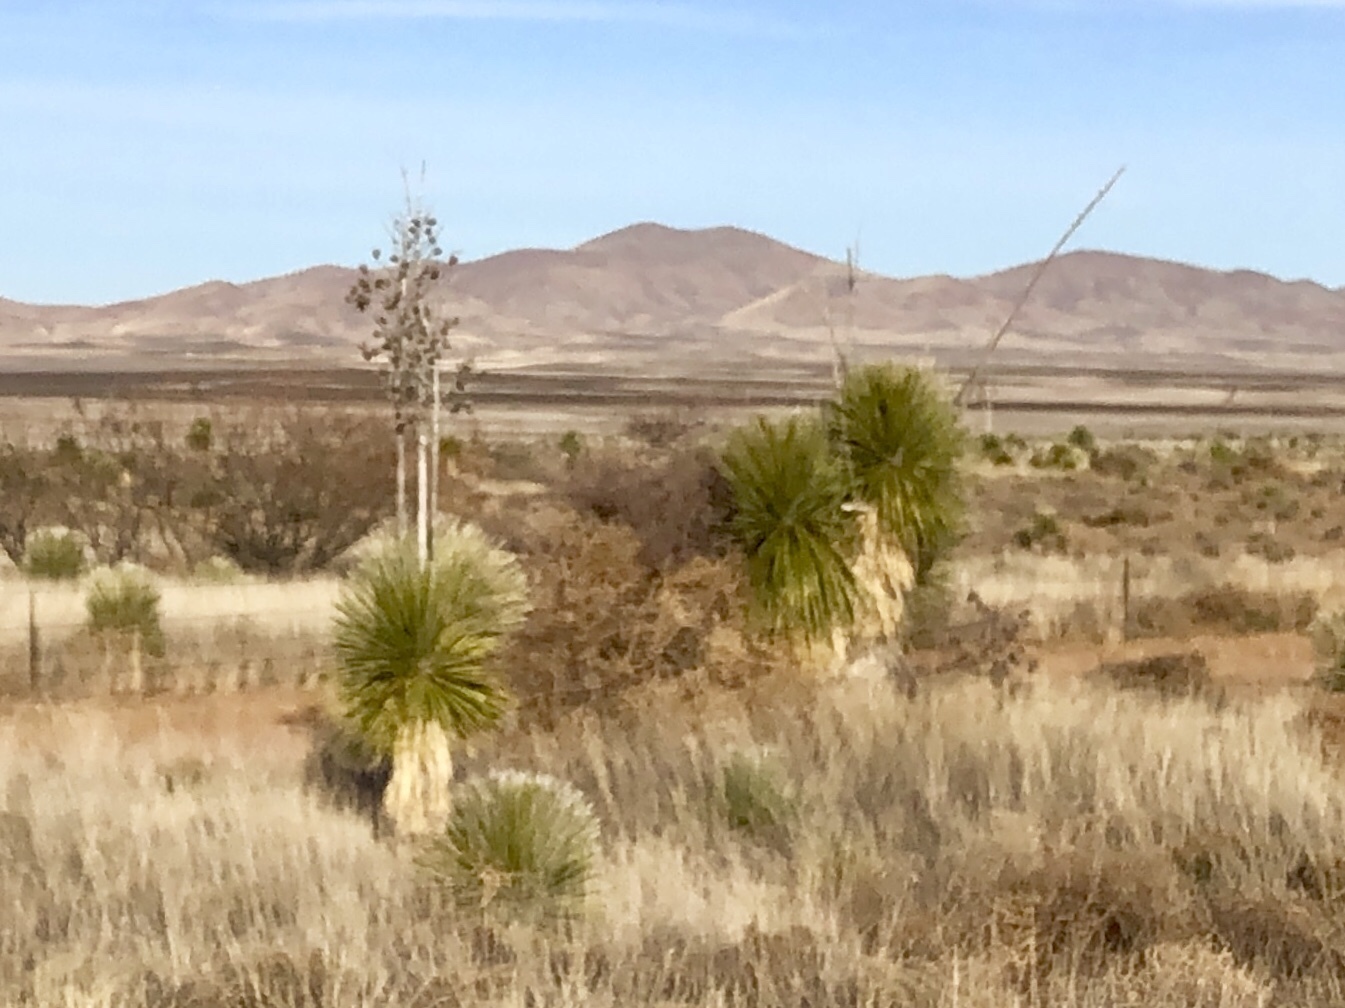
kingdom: Plantae
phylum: Tracheophyta
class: Liliopsida
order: Asparagales
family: Asparagaceae
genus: Yucca
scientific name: Yucca elata
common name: Palmella
